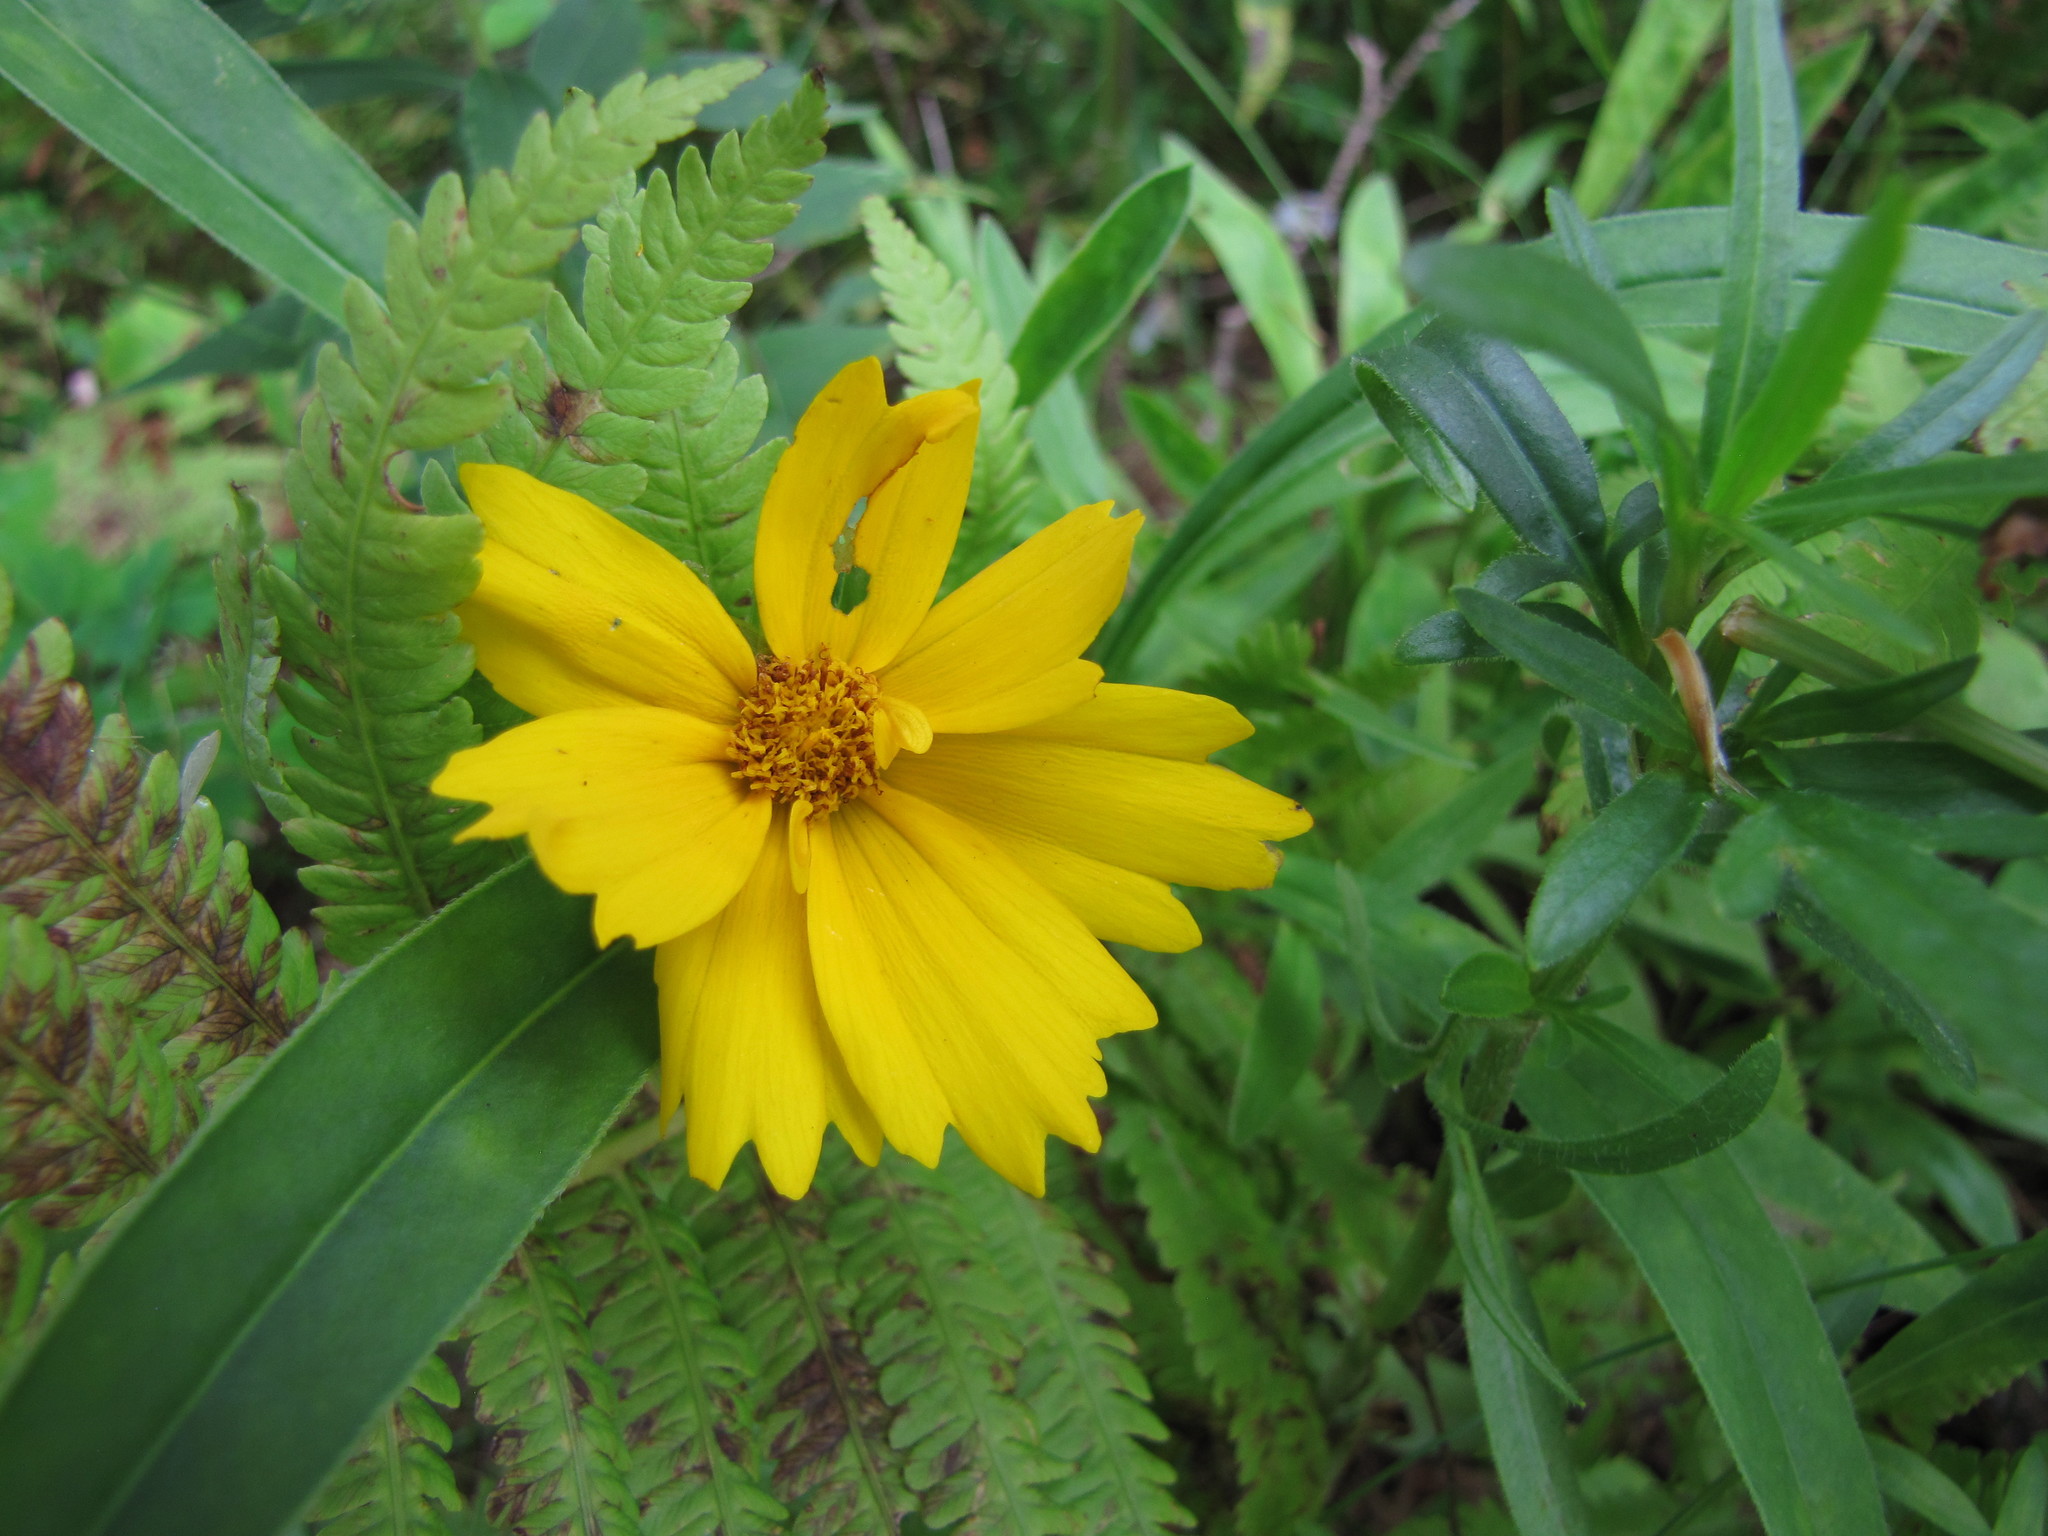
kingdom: Plantae
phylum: Tracheophyta
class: Magnoliopsida
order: Asterales
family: Asteraceae
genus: Coreopsis
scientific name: Coreopsis lanceolata
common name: Garden coreopsis
